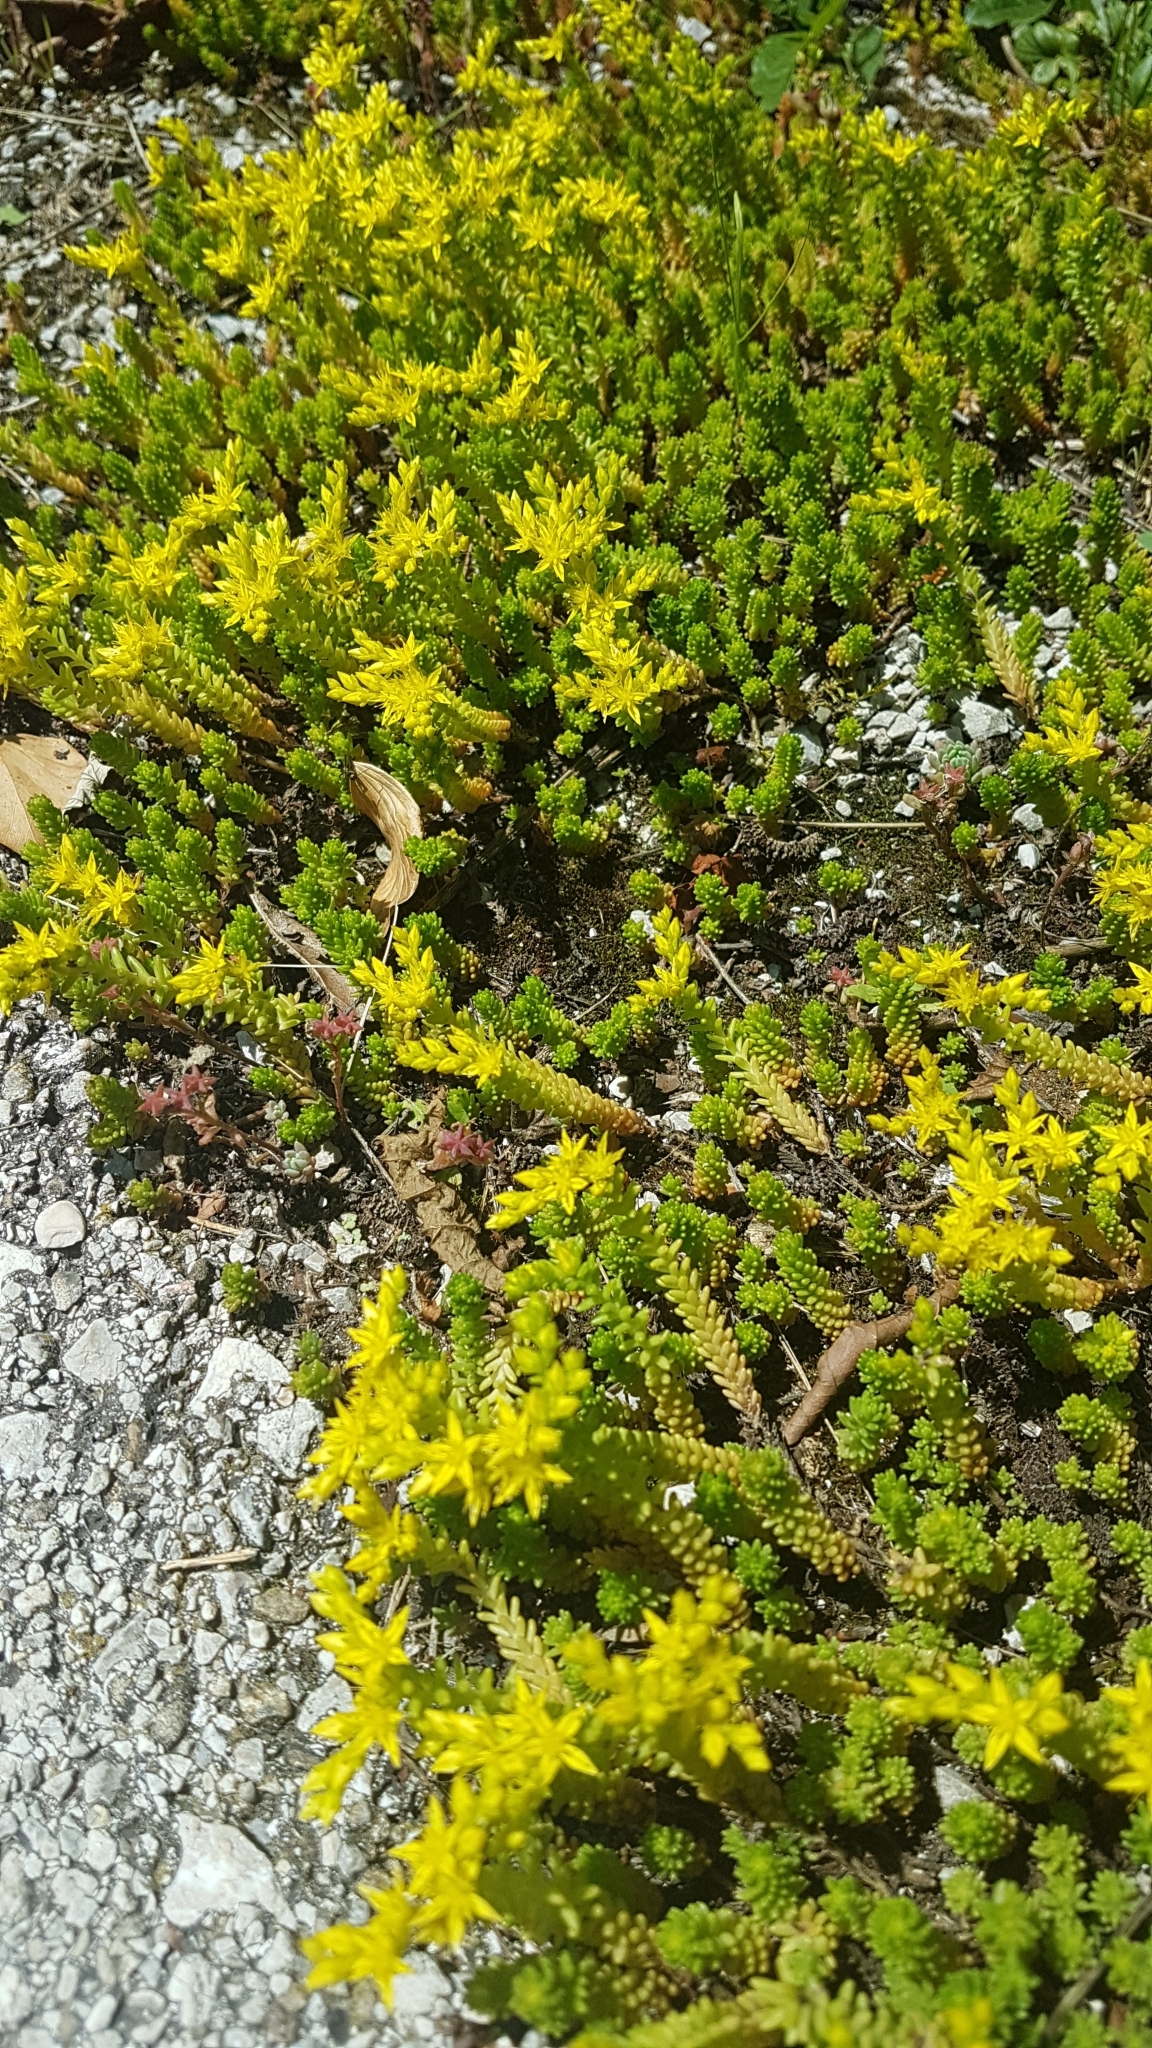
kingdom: Plantae
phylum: Tracheophyta
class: Magnoliopsida
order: Saxifragales
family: Crassulaceae
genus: Sedum
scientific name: Sedum sexangulare
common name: Tasteless stonecrop
